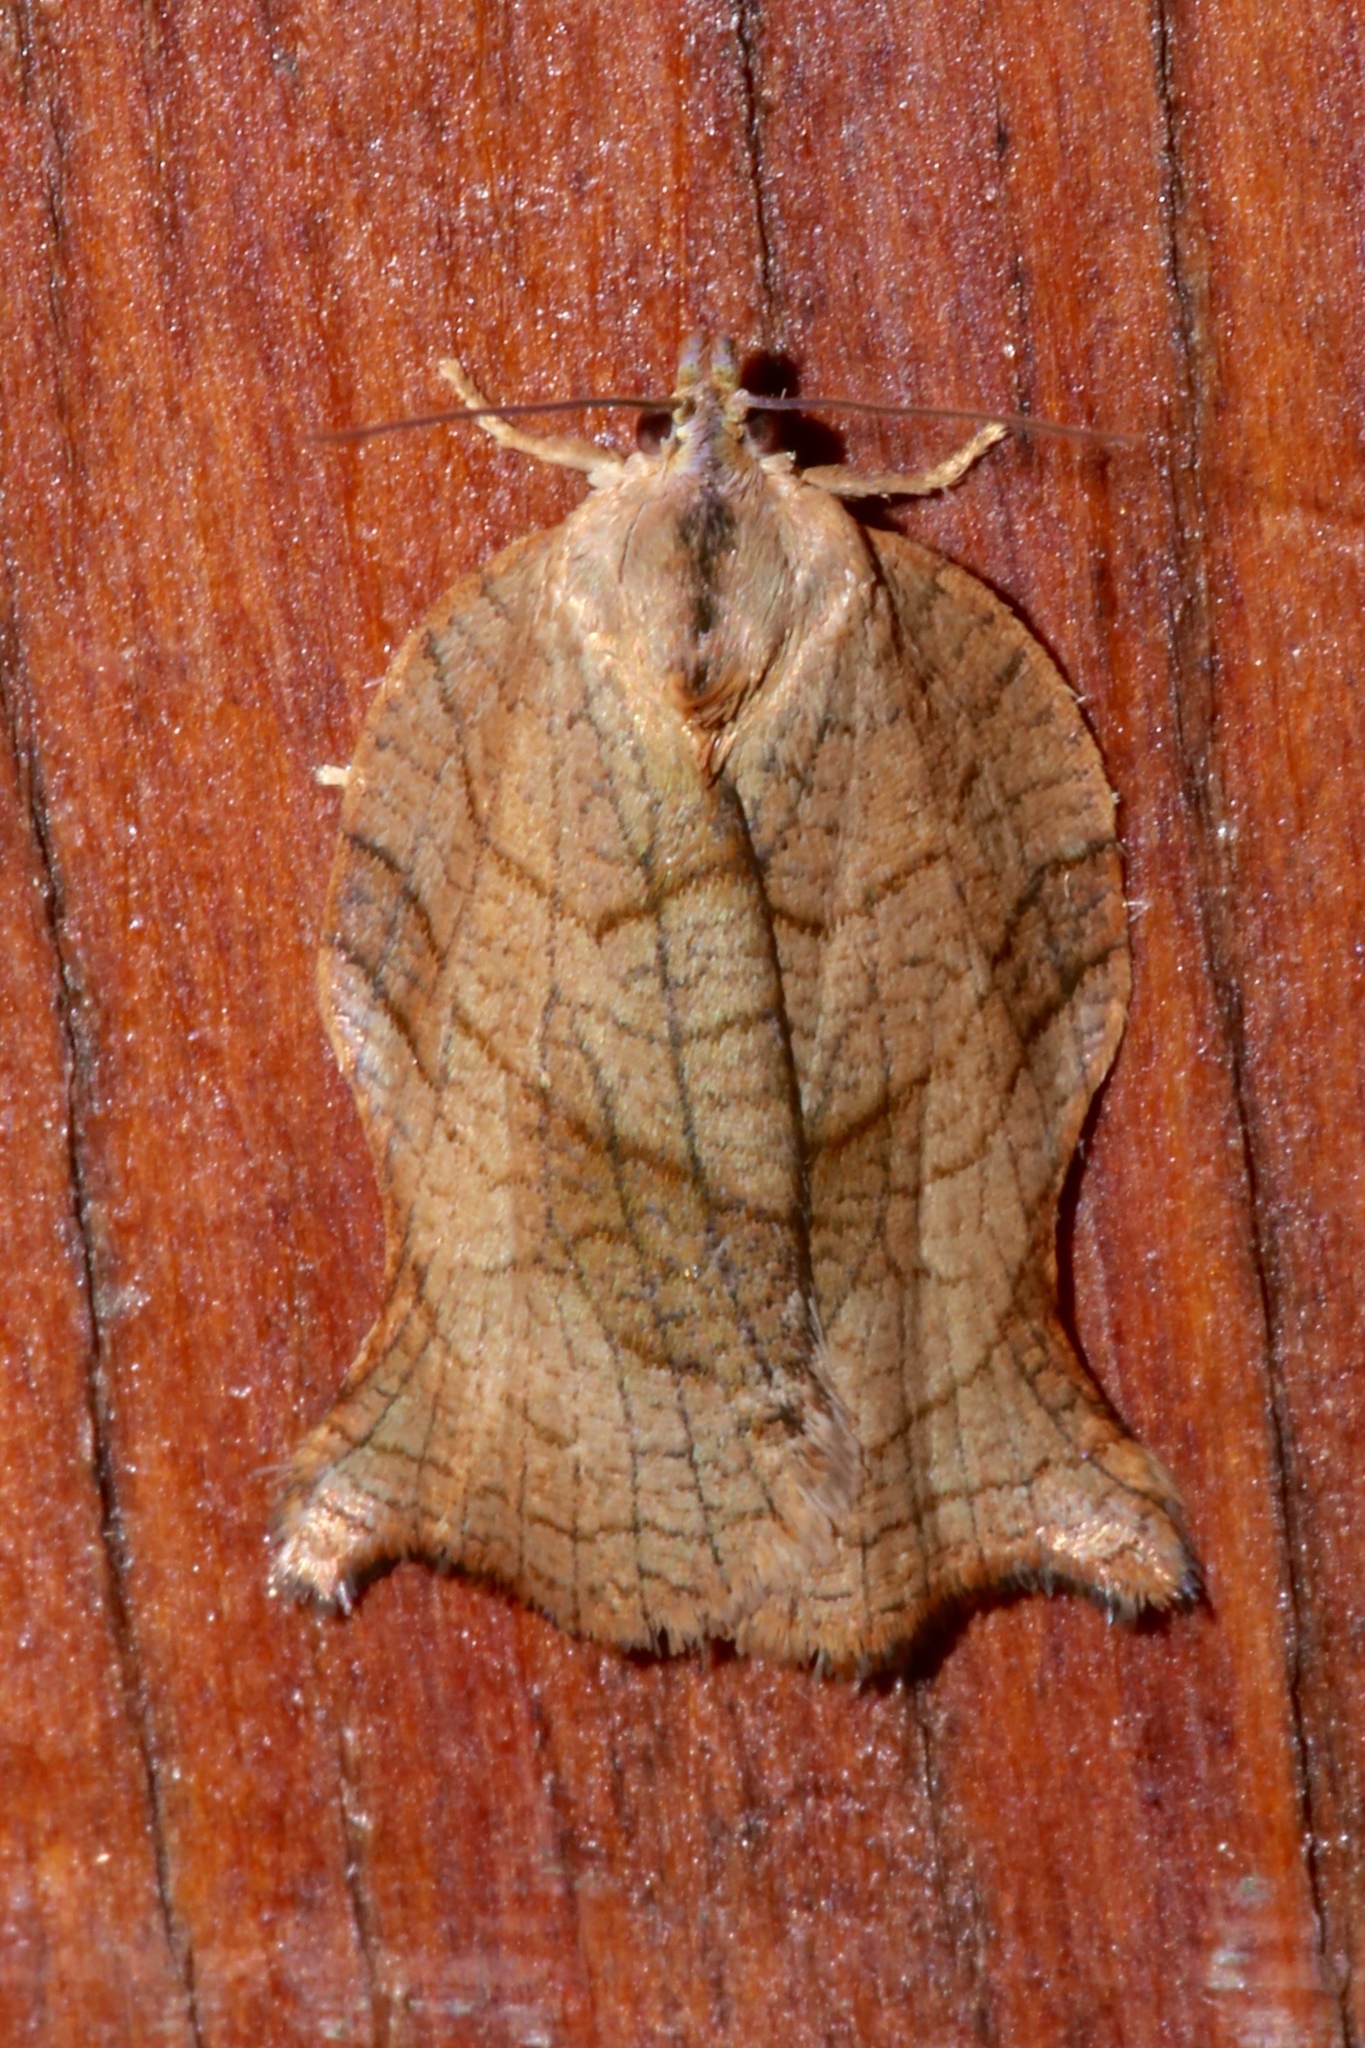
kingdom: Animalia
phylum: Arthropoda
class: Insecta
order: Lepidoptera
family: Tortricidae
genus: Archips
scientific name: Archips purpurana
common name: Omnivorous leafroller
